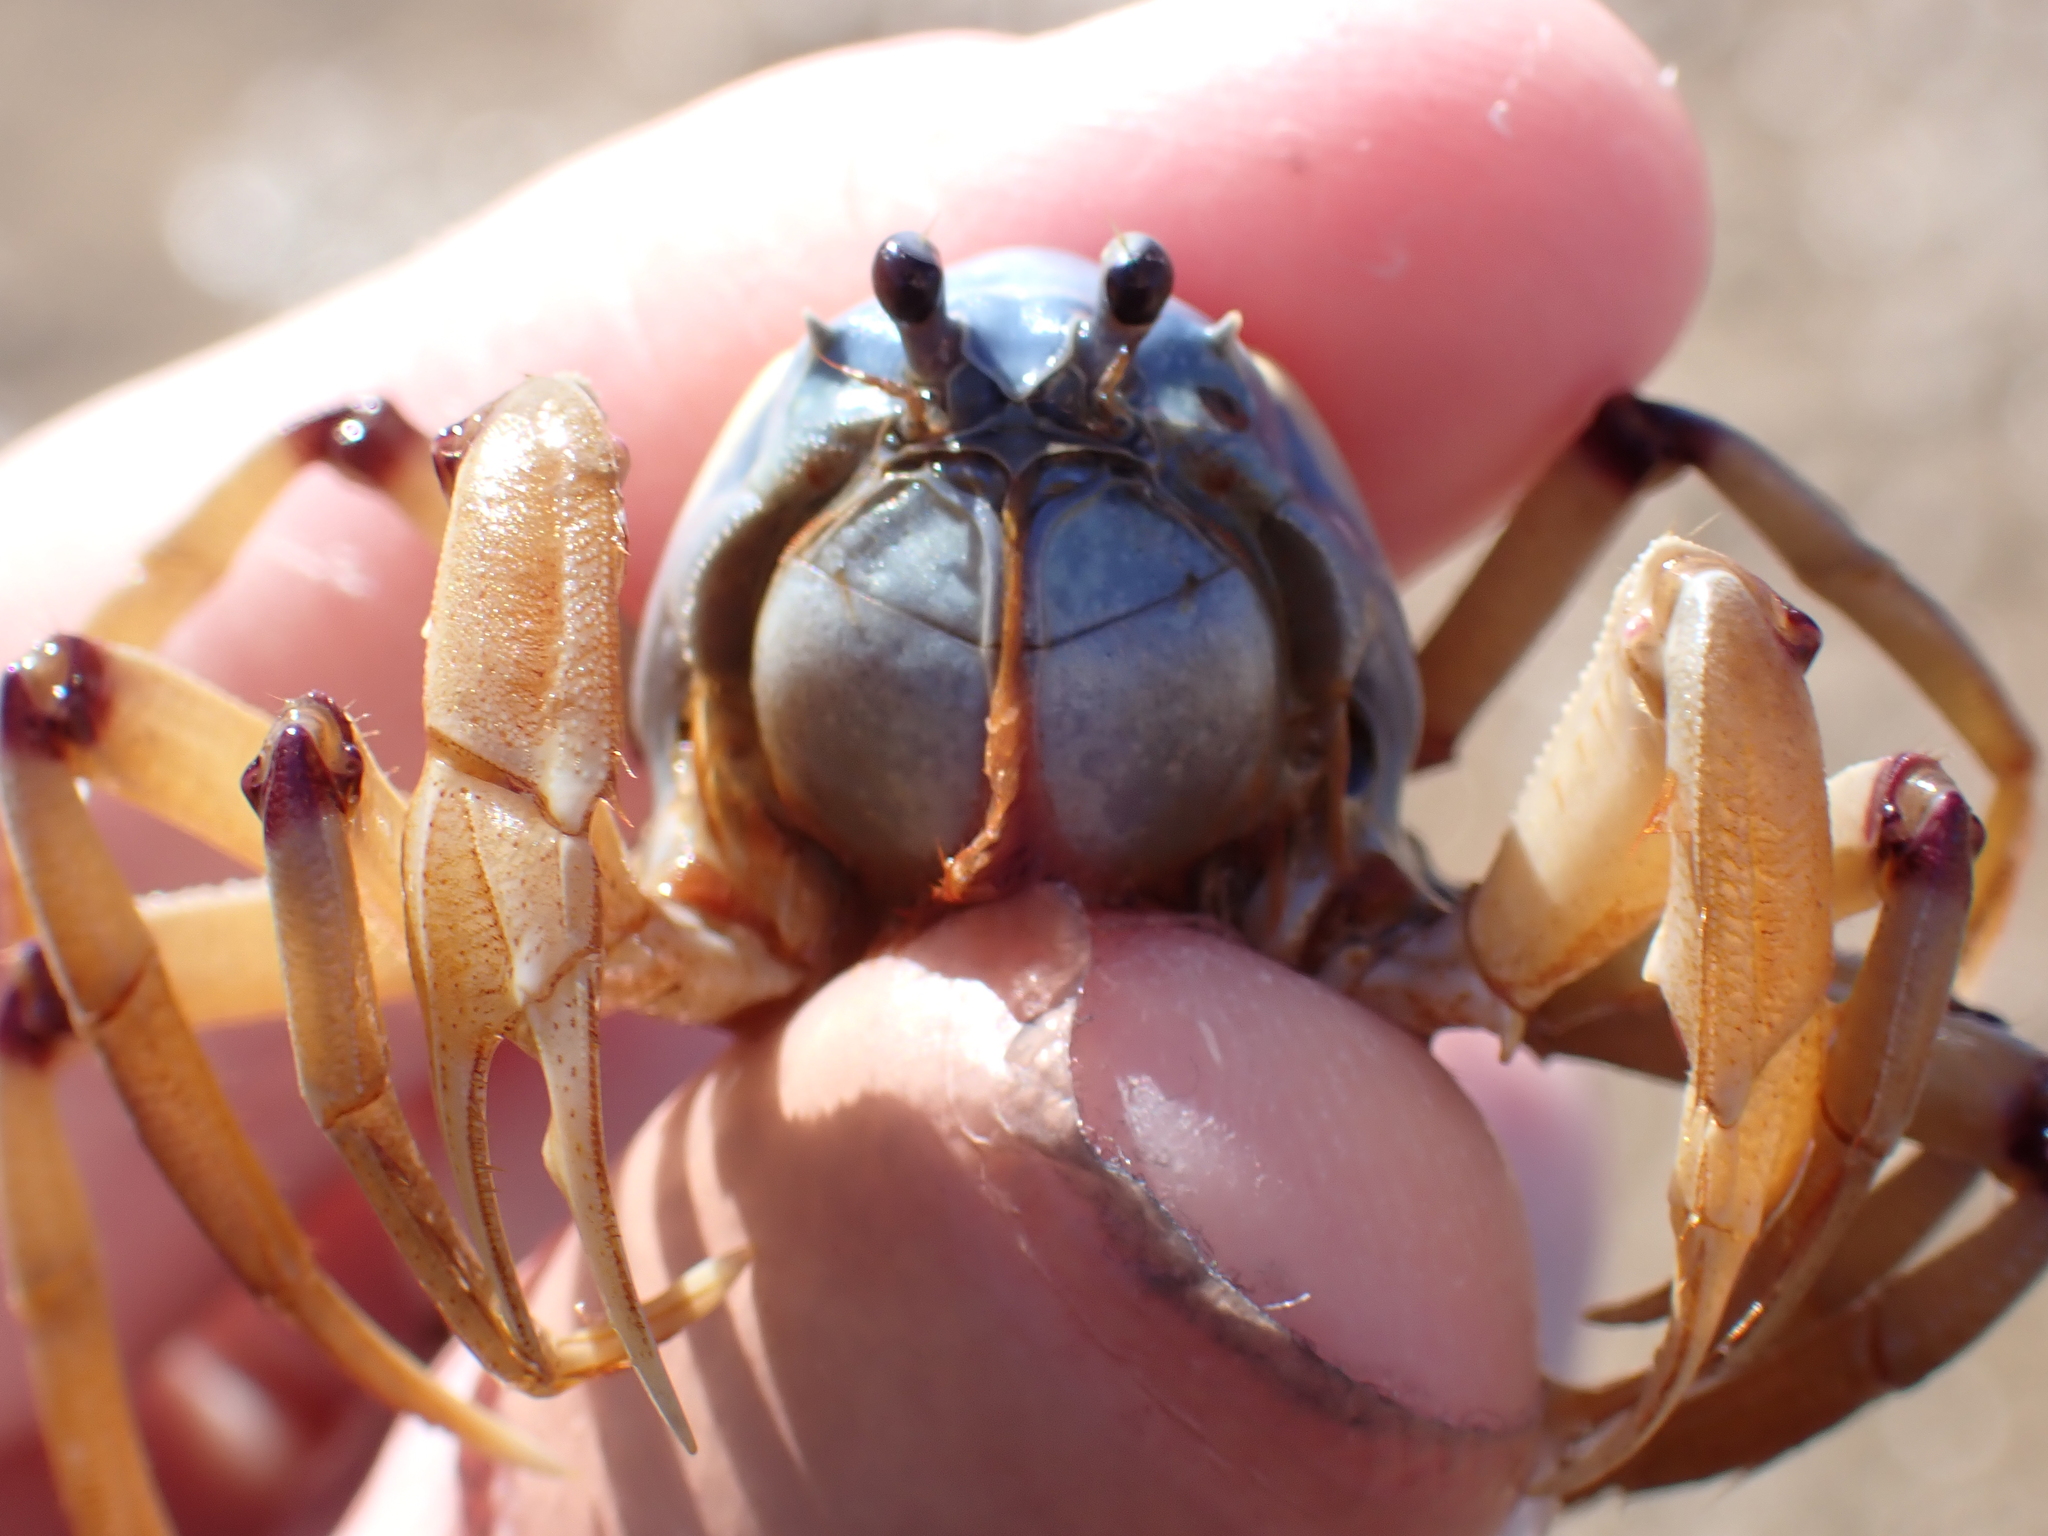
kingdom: Animalia
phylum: Arthropoda
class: Malacostraca
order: Decapoda
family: Mictyridae
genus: Mictyris
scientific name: Mictyris longicarpus
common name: Light-blue soldier crab
